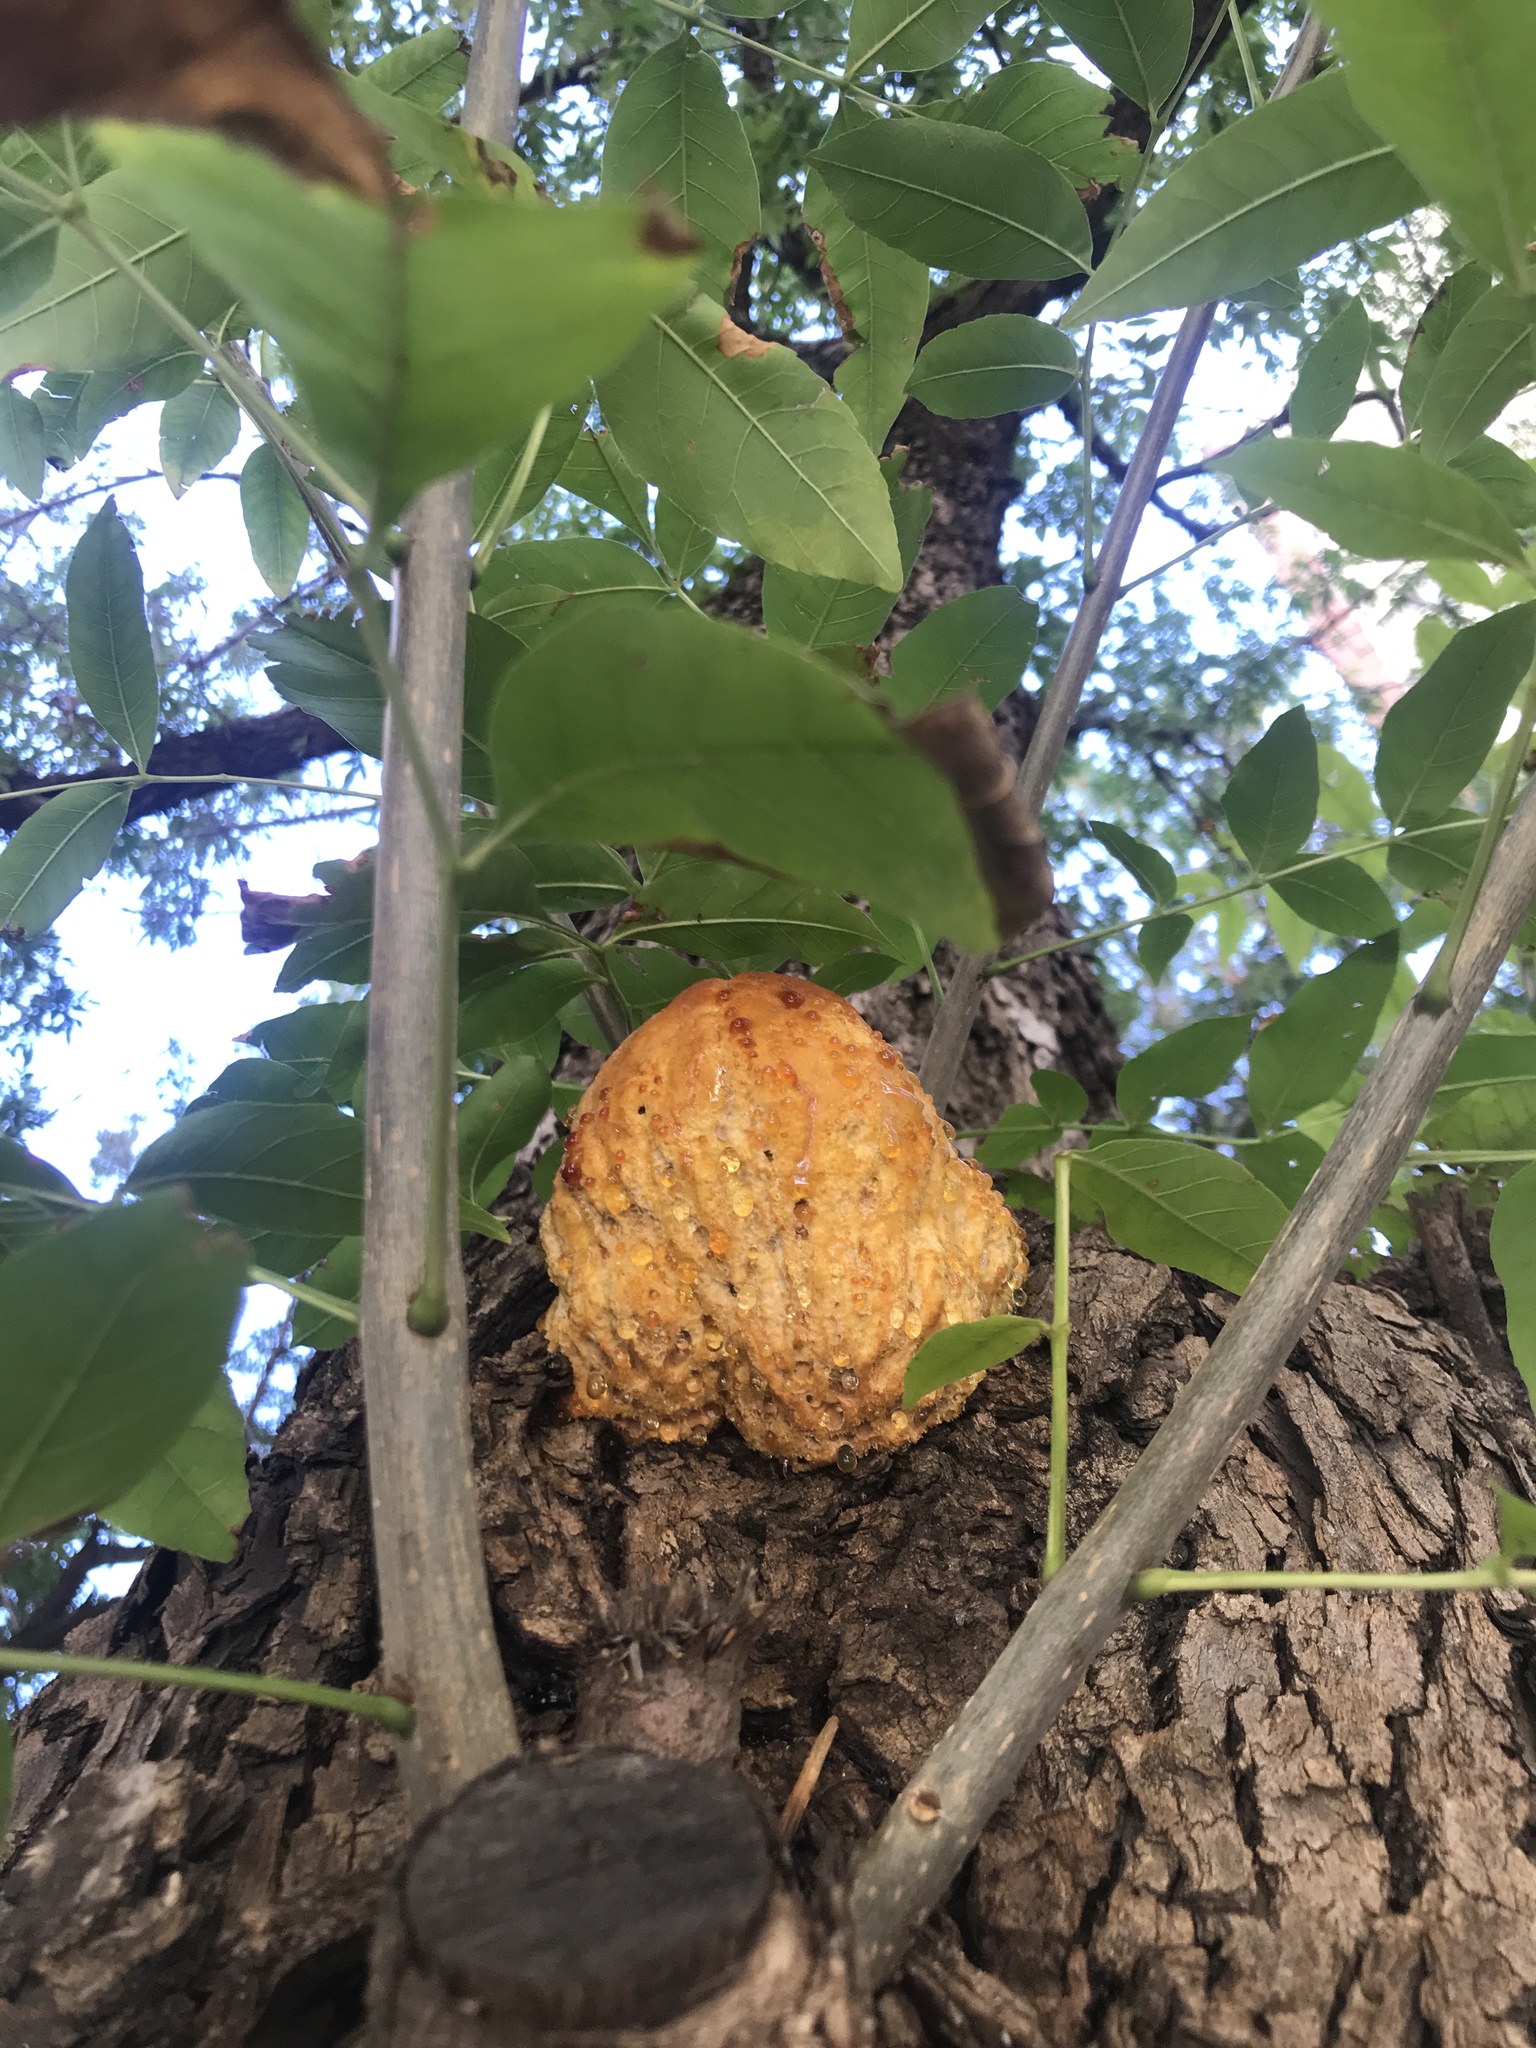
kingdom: Fungi
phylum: Basidiomycota
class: Agaricomycetes
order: Hymenochaetales
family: Hymenochaetaceae
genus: Inonotus
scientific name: Inonotus rickii
